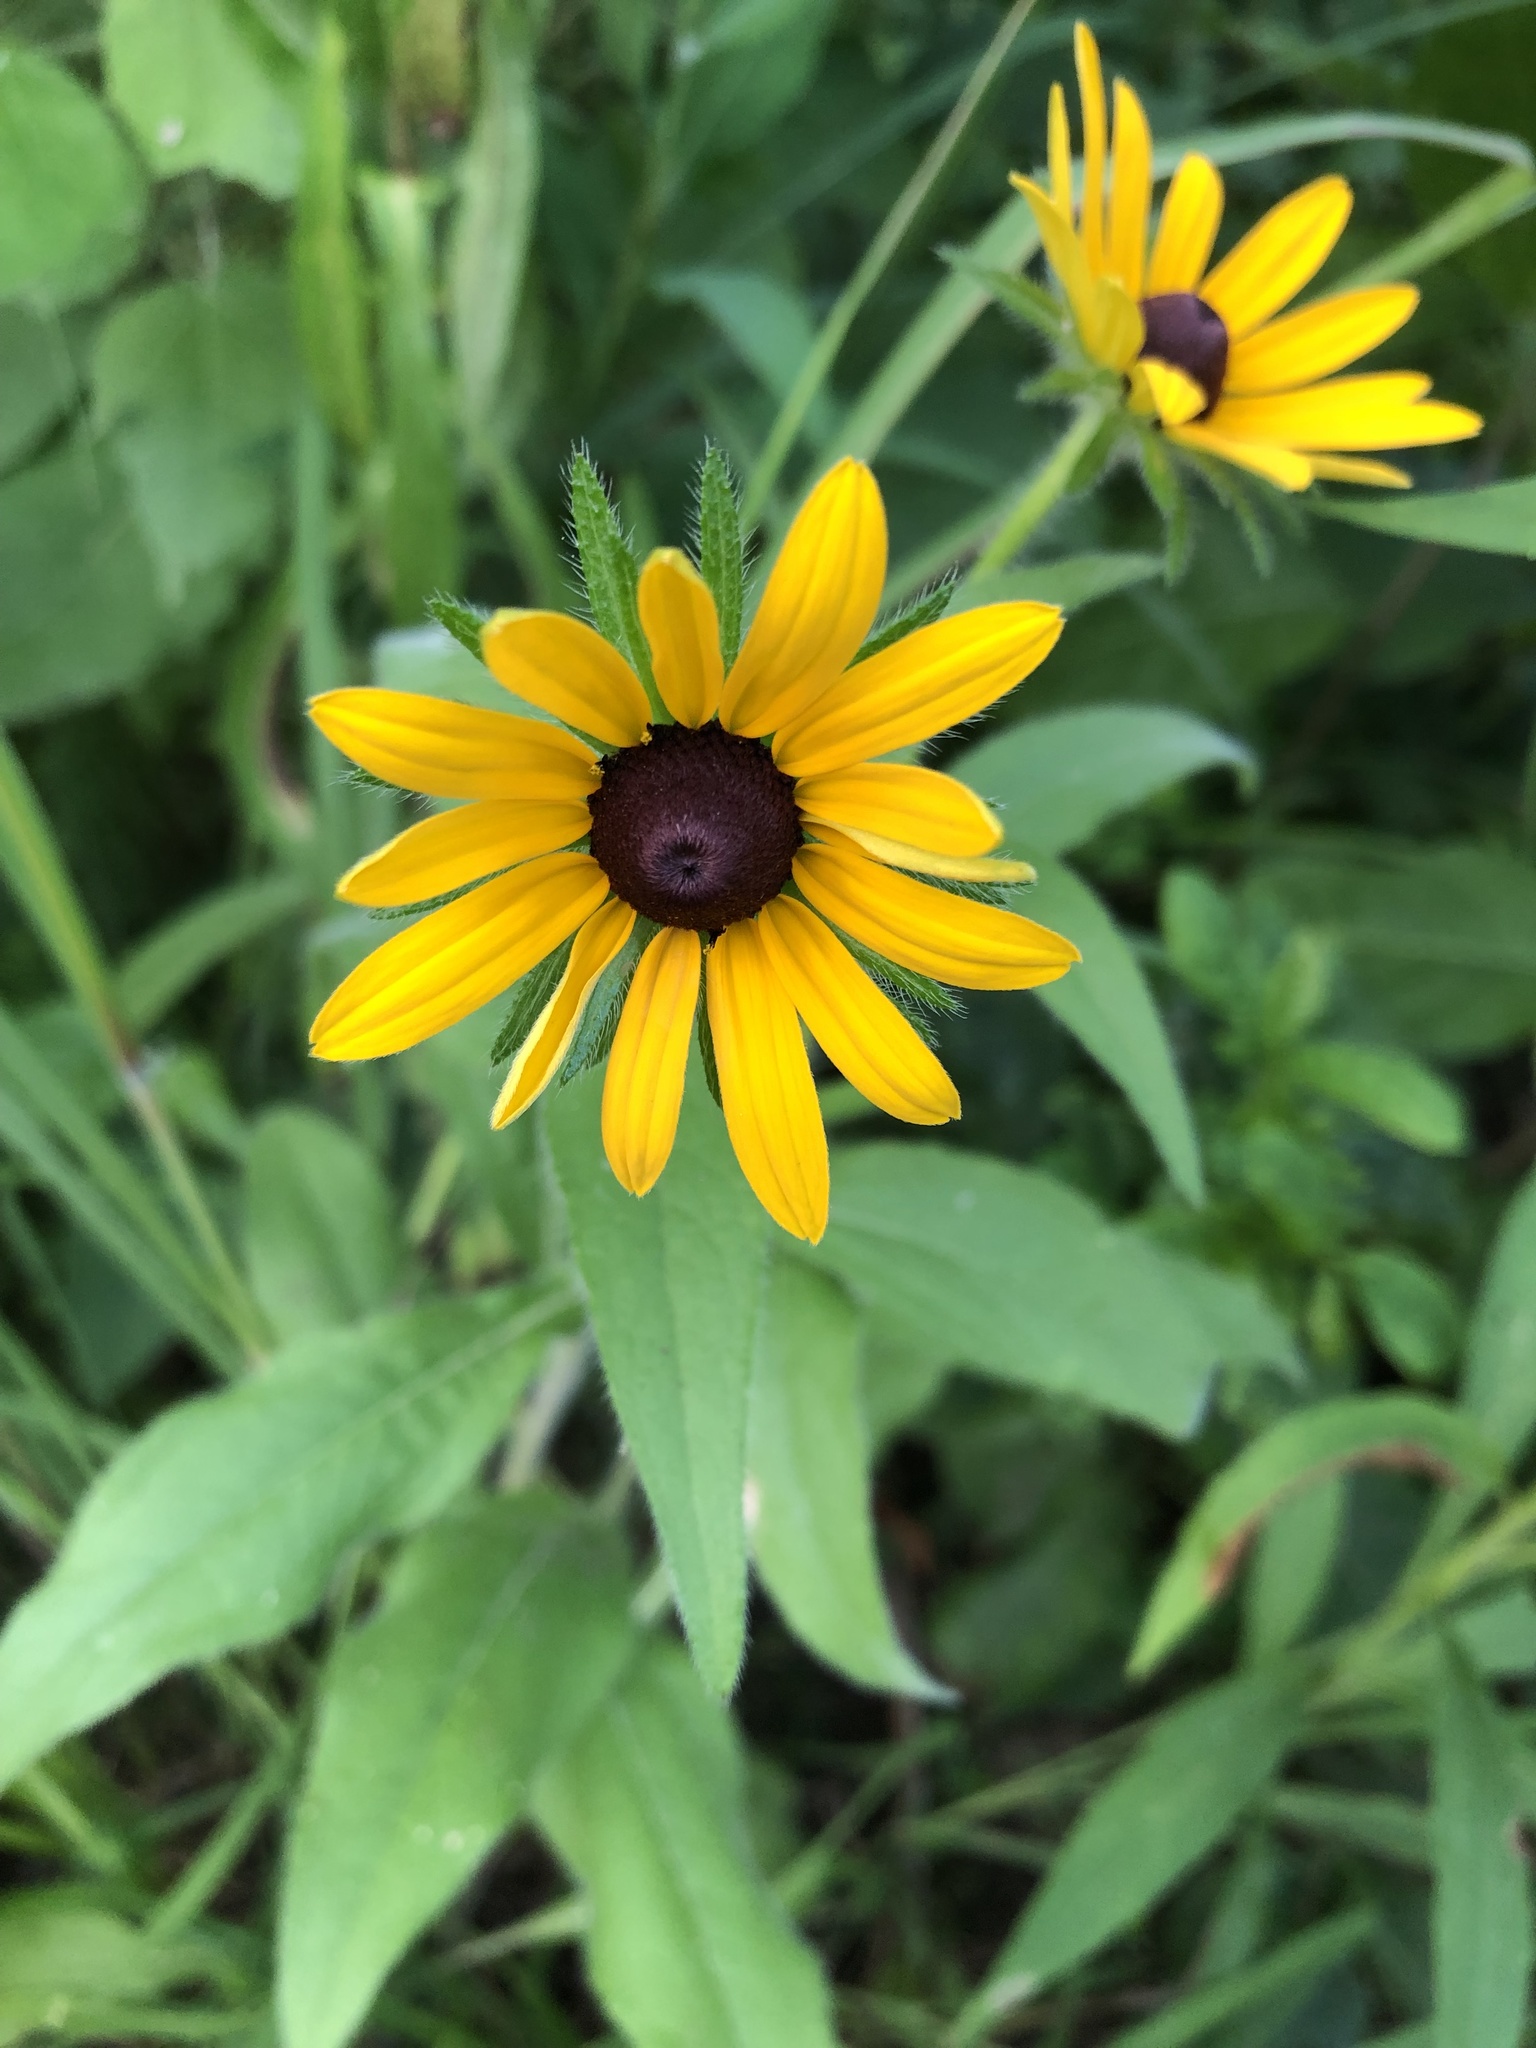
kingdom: Plantae
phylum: Tracheophyta
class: Magnoliopsida
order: Asterales
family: Asteraceae
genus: Rudbeckia
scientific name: Rudbeckia hirta
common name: Black-eyed-susan
